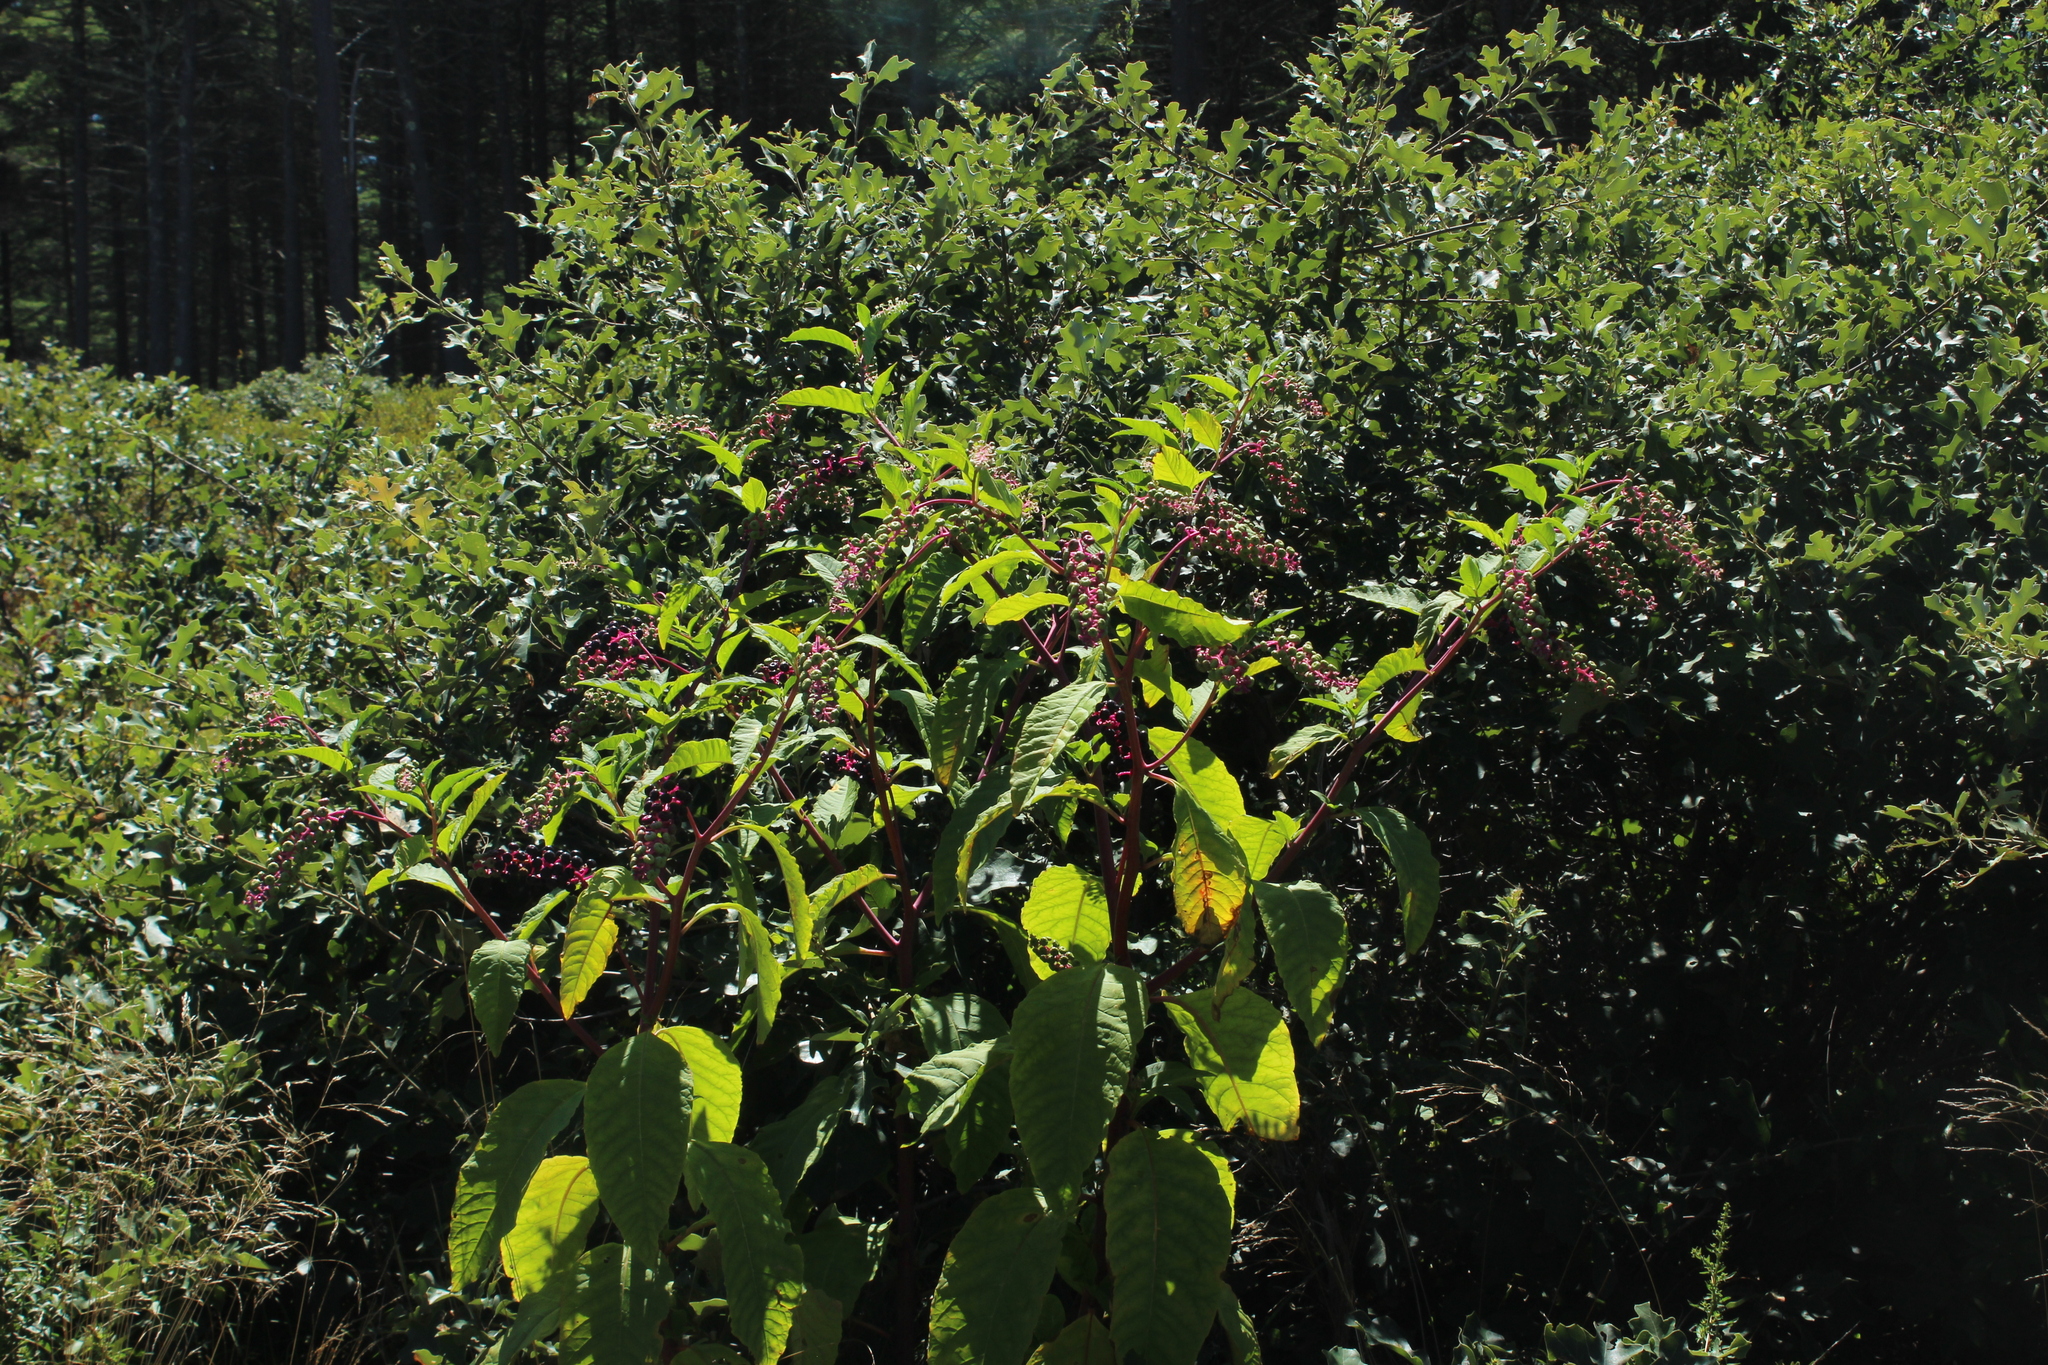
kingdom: Plantae
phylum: Tracheophyta
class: Magnoliopsida
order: Fagales
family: Fagaceae
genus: Quercus
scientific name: Quercus ilicifolia
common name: Bear oak
